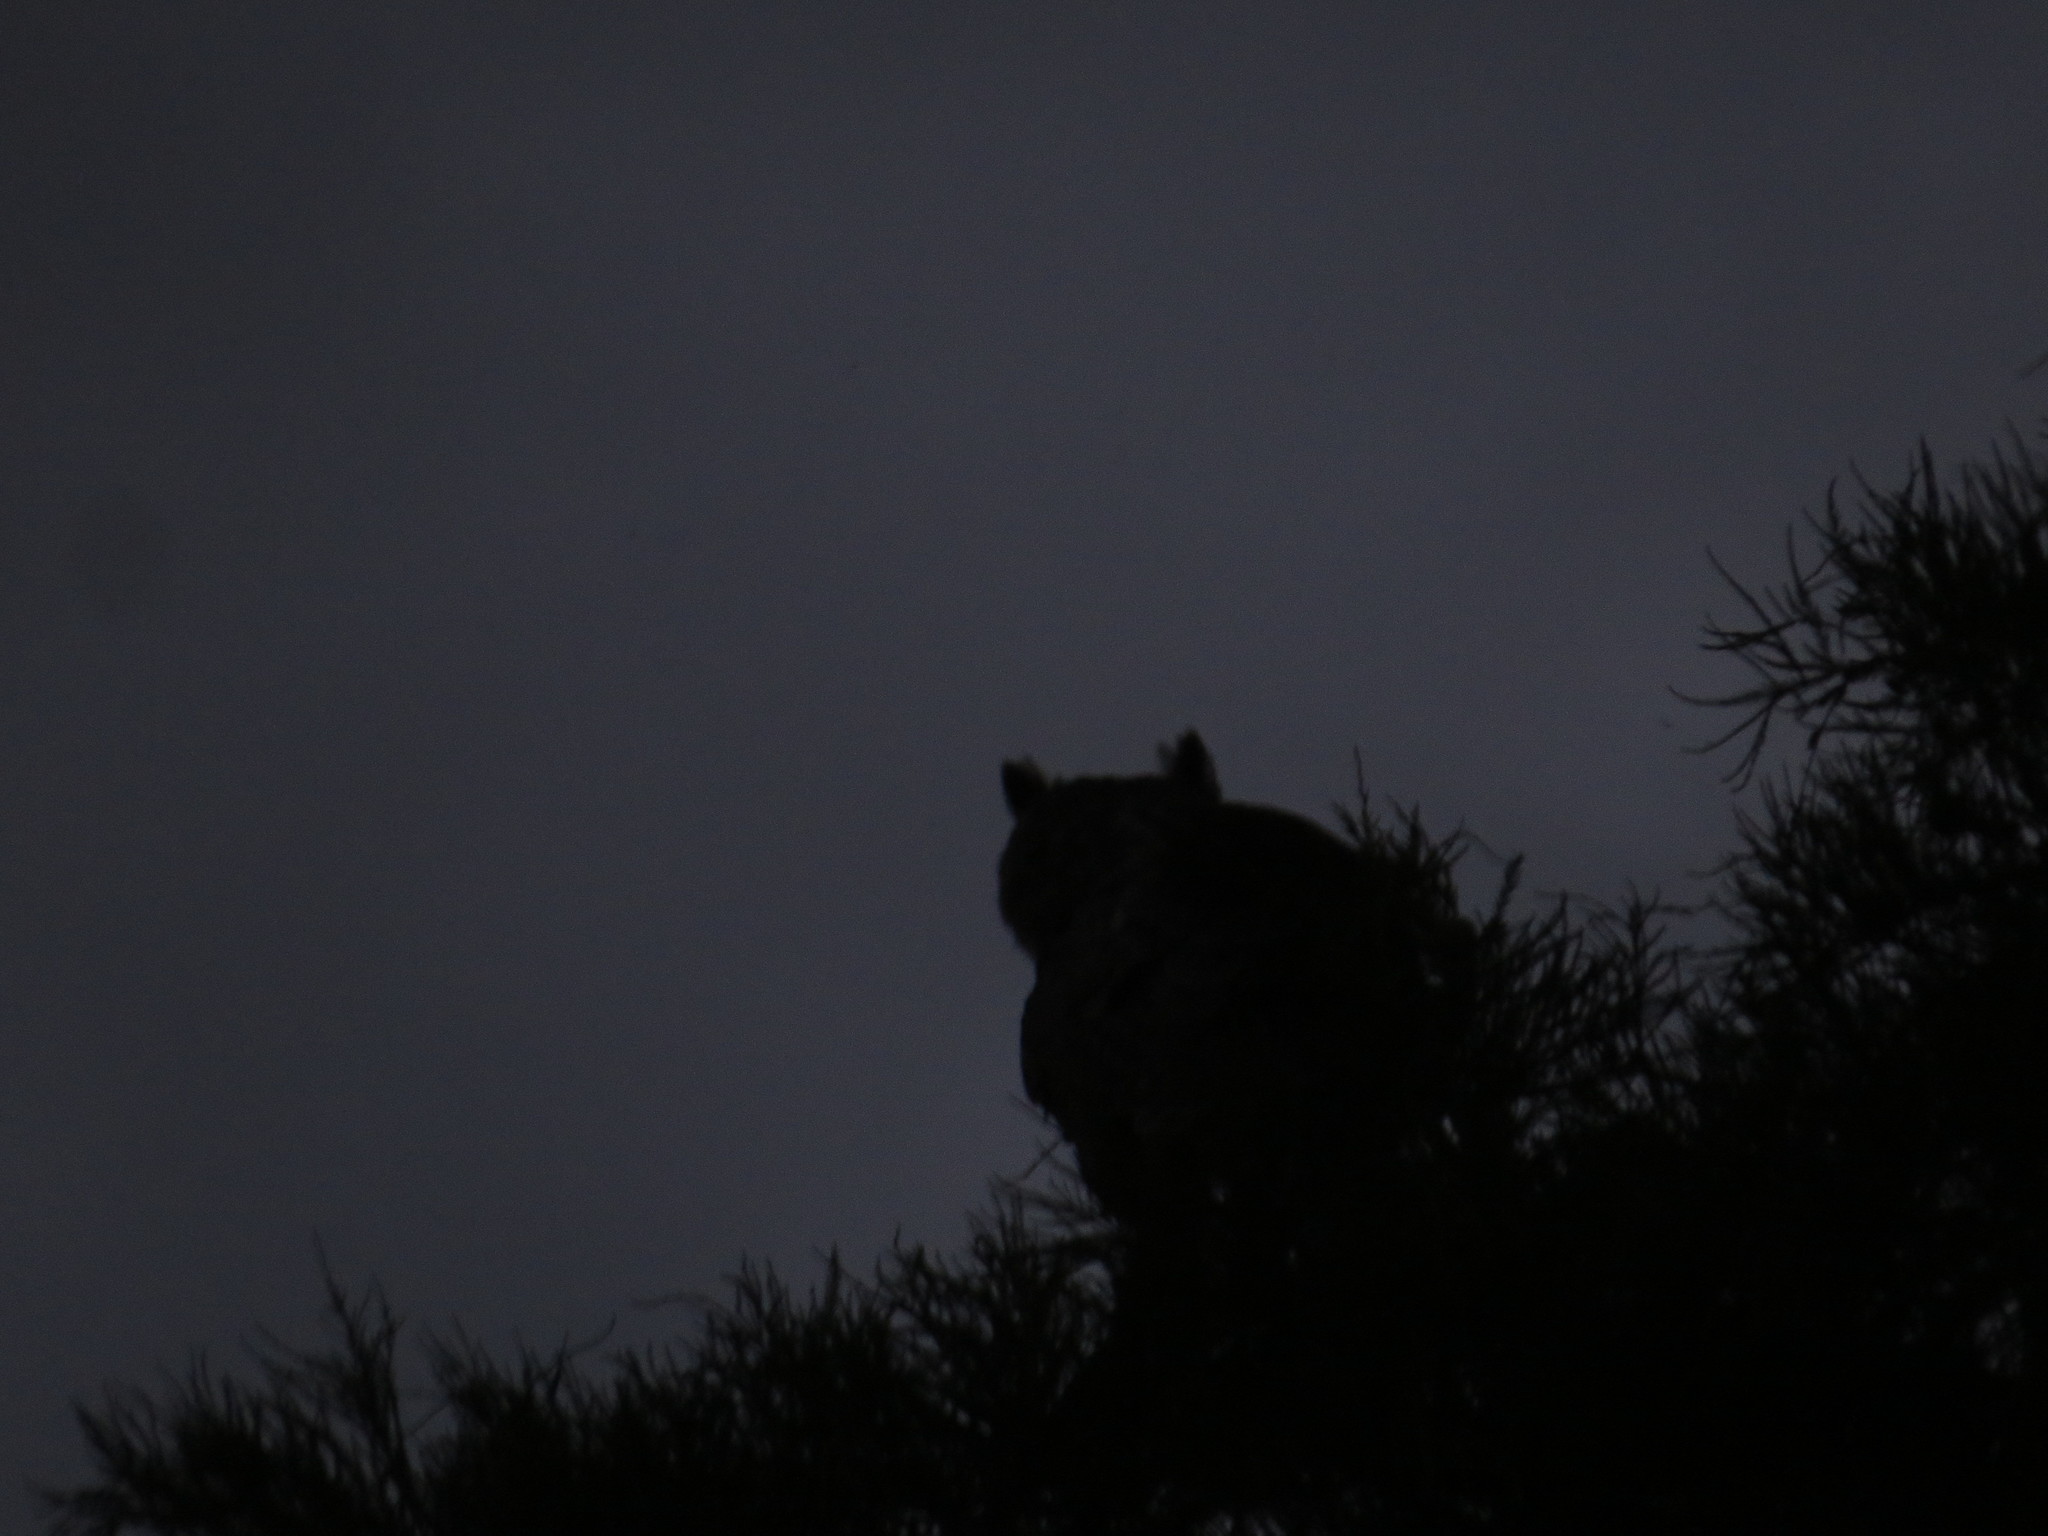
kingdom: Animalia
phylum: Chordata
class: Aves
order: Strigiformes
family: Strigidae
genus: Bubo
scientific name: Bubo virginianus
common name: Great horned owl
